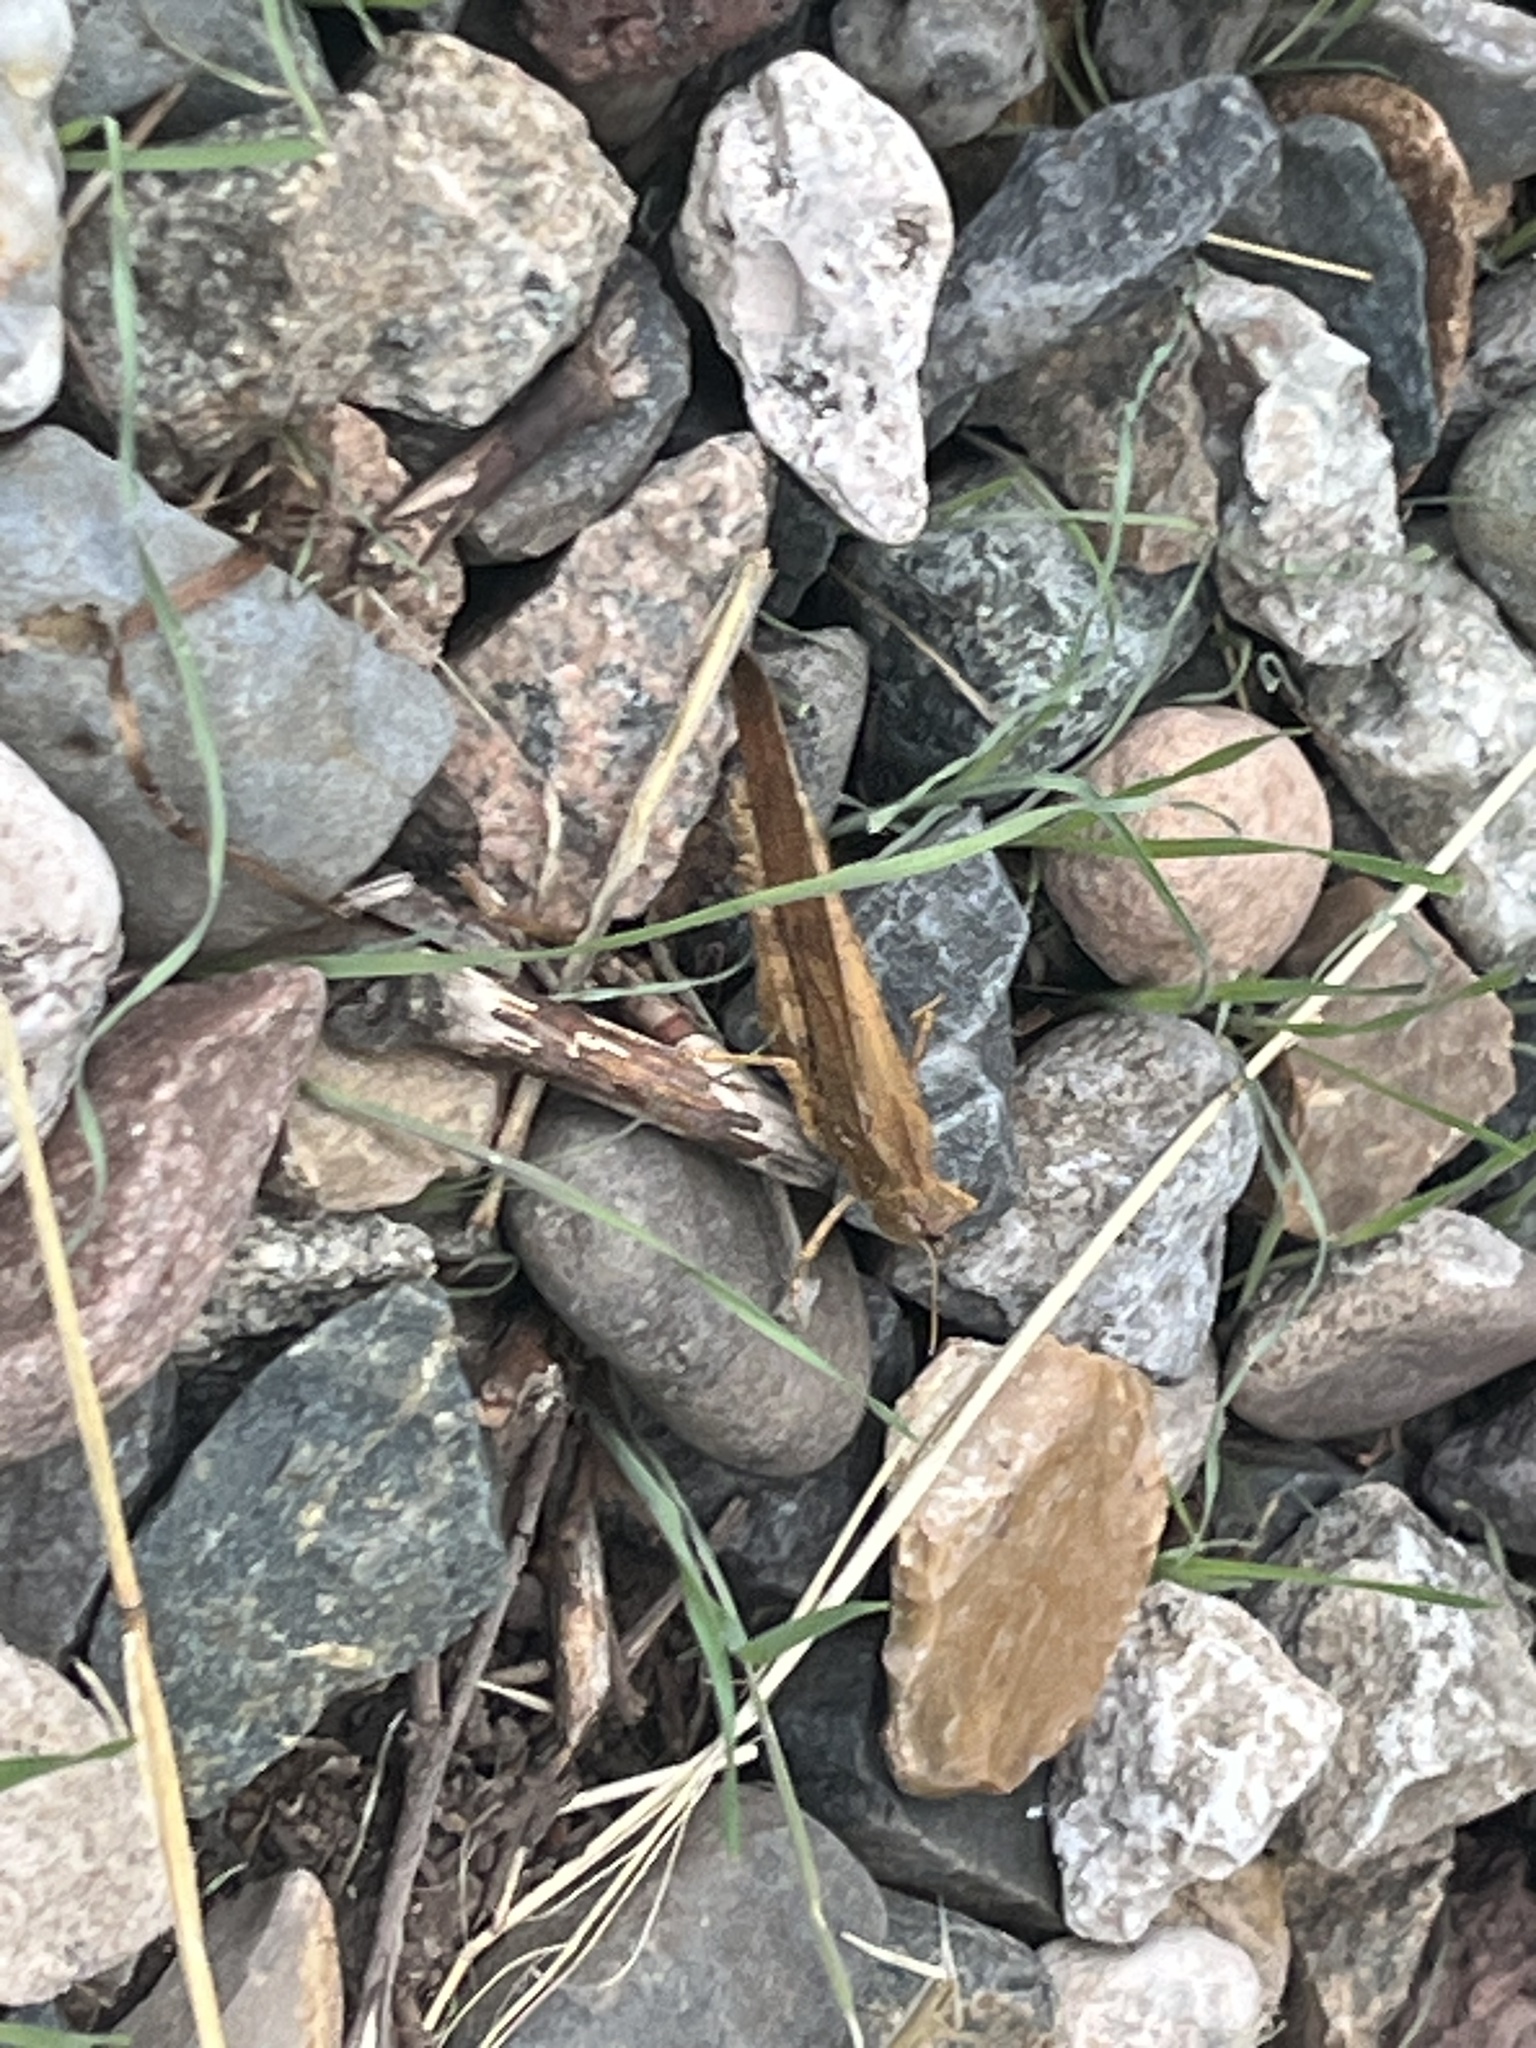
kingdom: Animalia
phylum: Arthropoda
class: Insecta
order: Orthoptera
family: Acrididae
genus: Dissosteira
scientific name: Dissosteira carolina
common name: Carolina grasshopper
